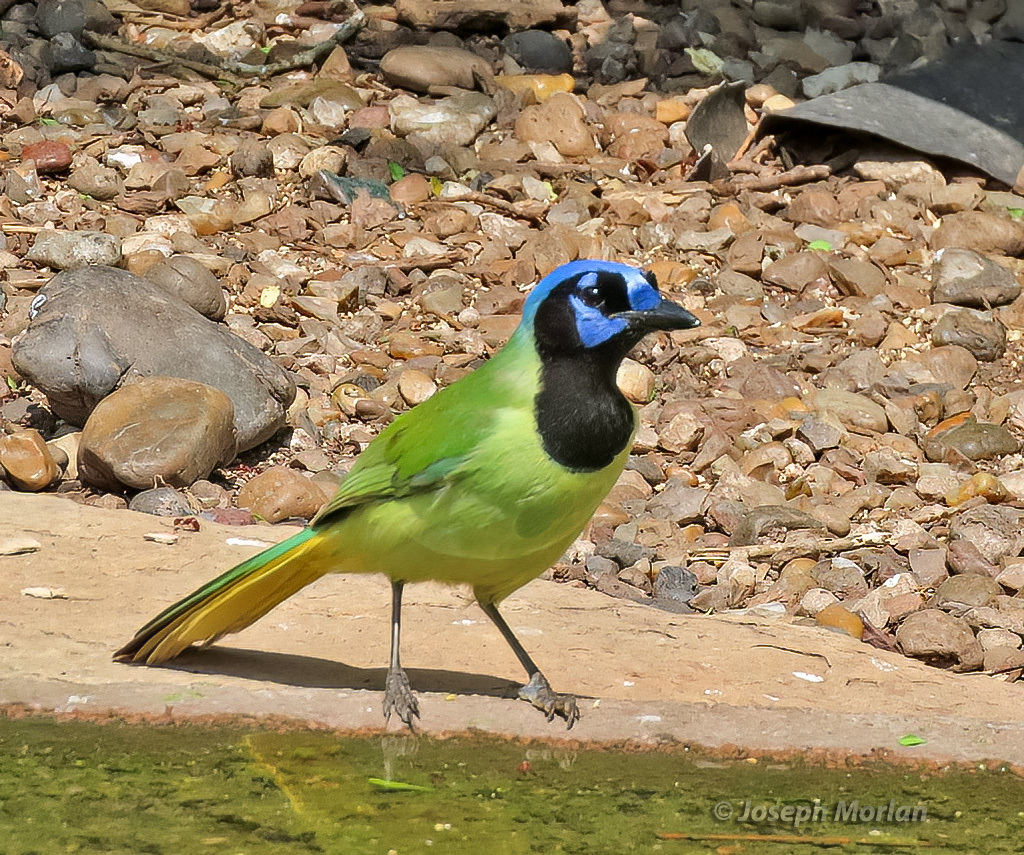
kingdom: Animalia
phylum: Chordata
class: Aves
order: Passeriformes
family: Corvidae
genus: Cyanocorax
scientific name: Cyanocorax yncas
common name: Green jay
